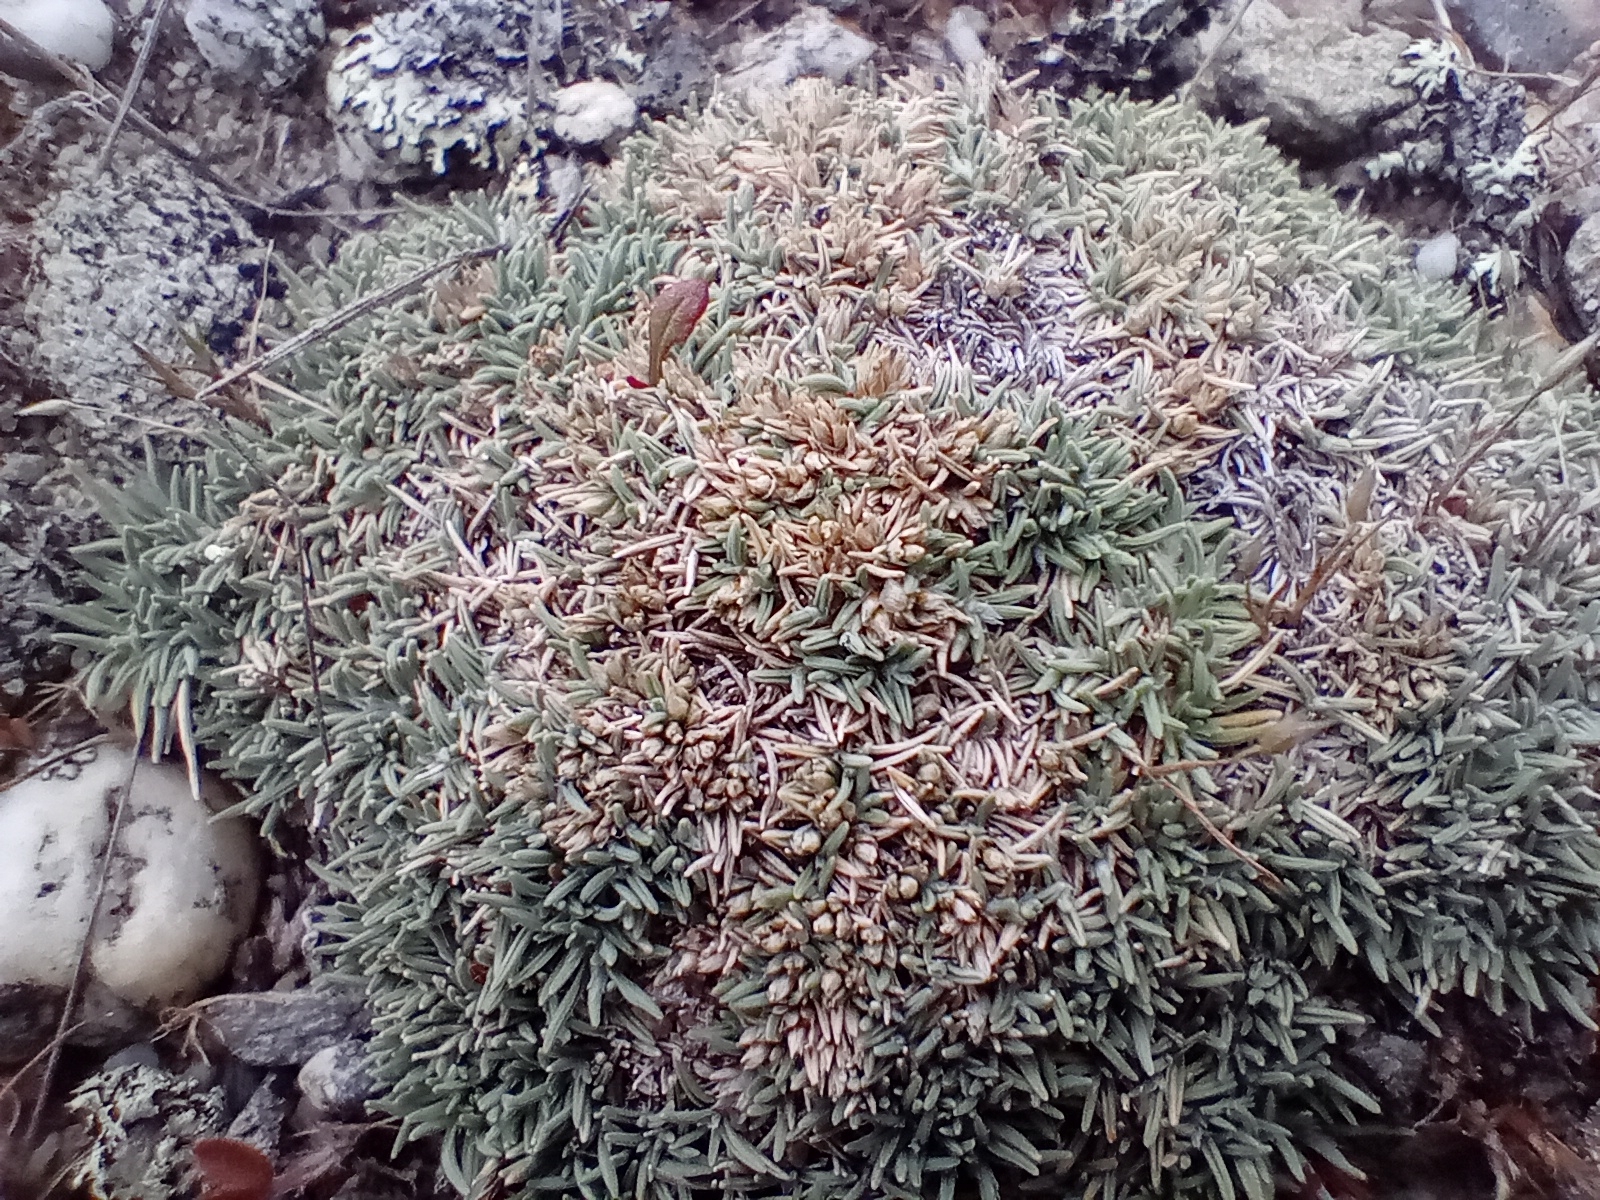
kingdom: Plantae
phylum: Tracheophyta
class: Liliopsida
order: Poales
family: Poaceae
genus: Agrostis
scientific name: Agrostis muscosa
